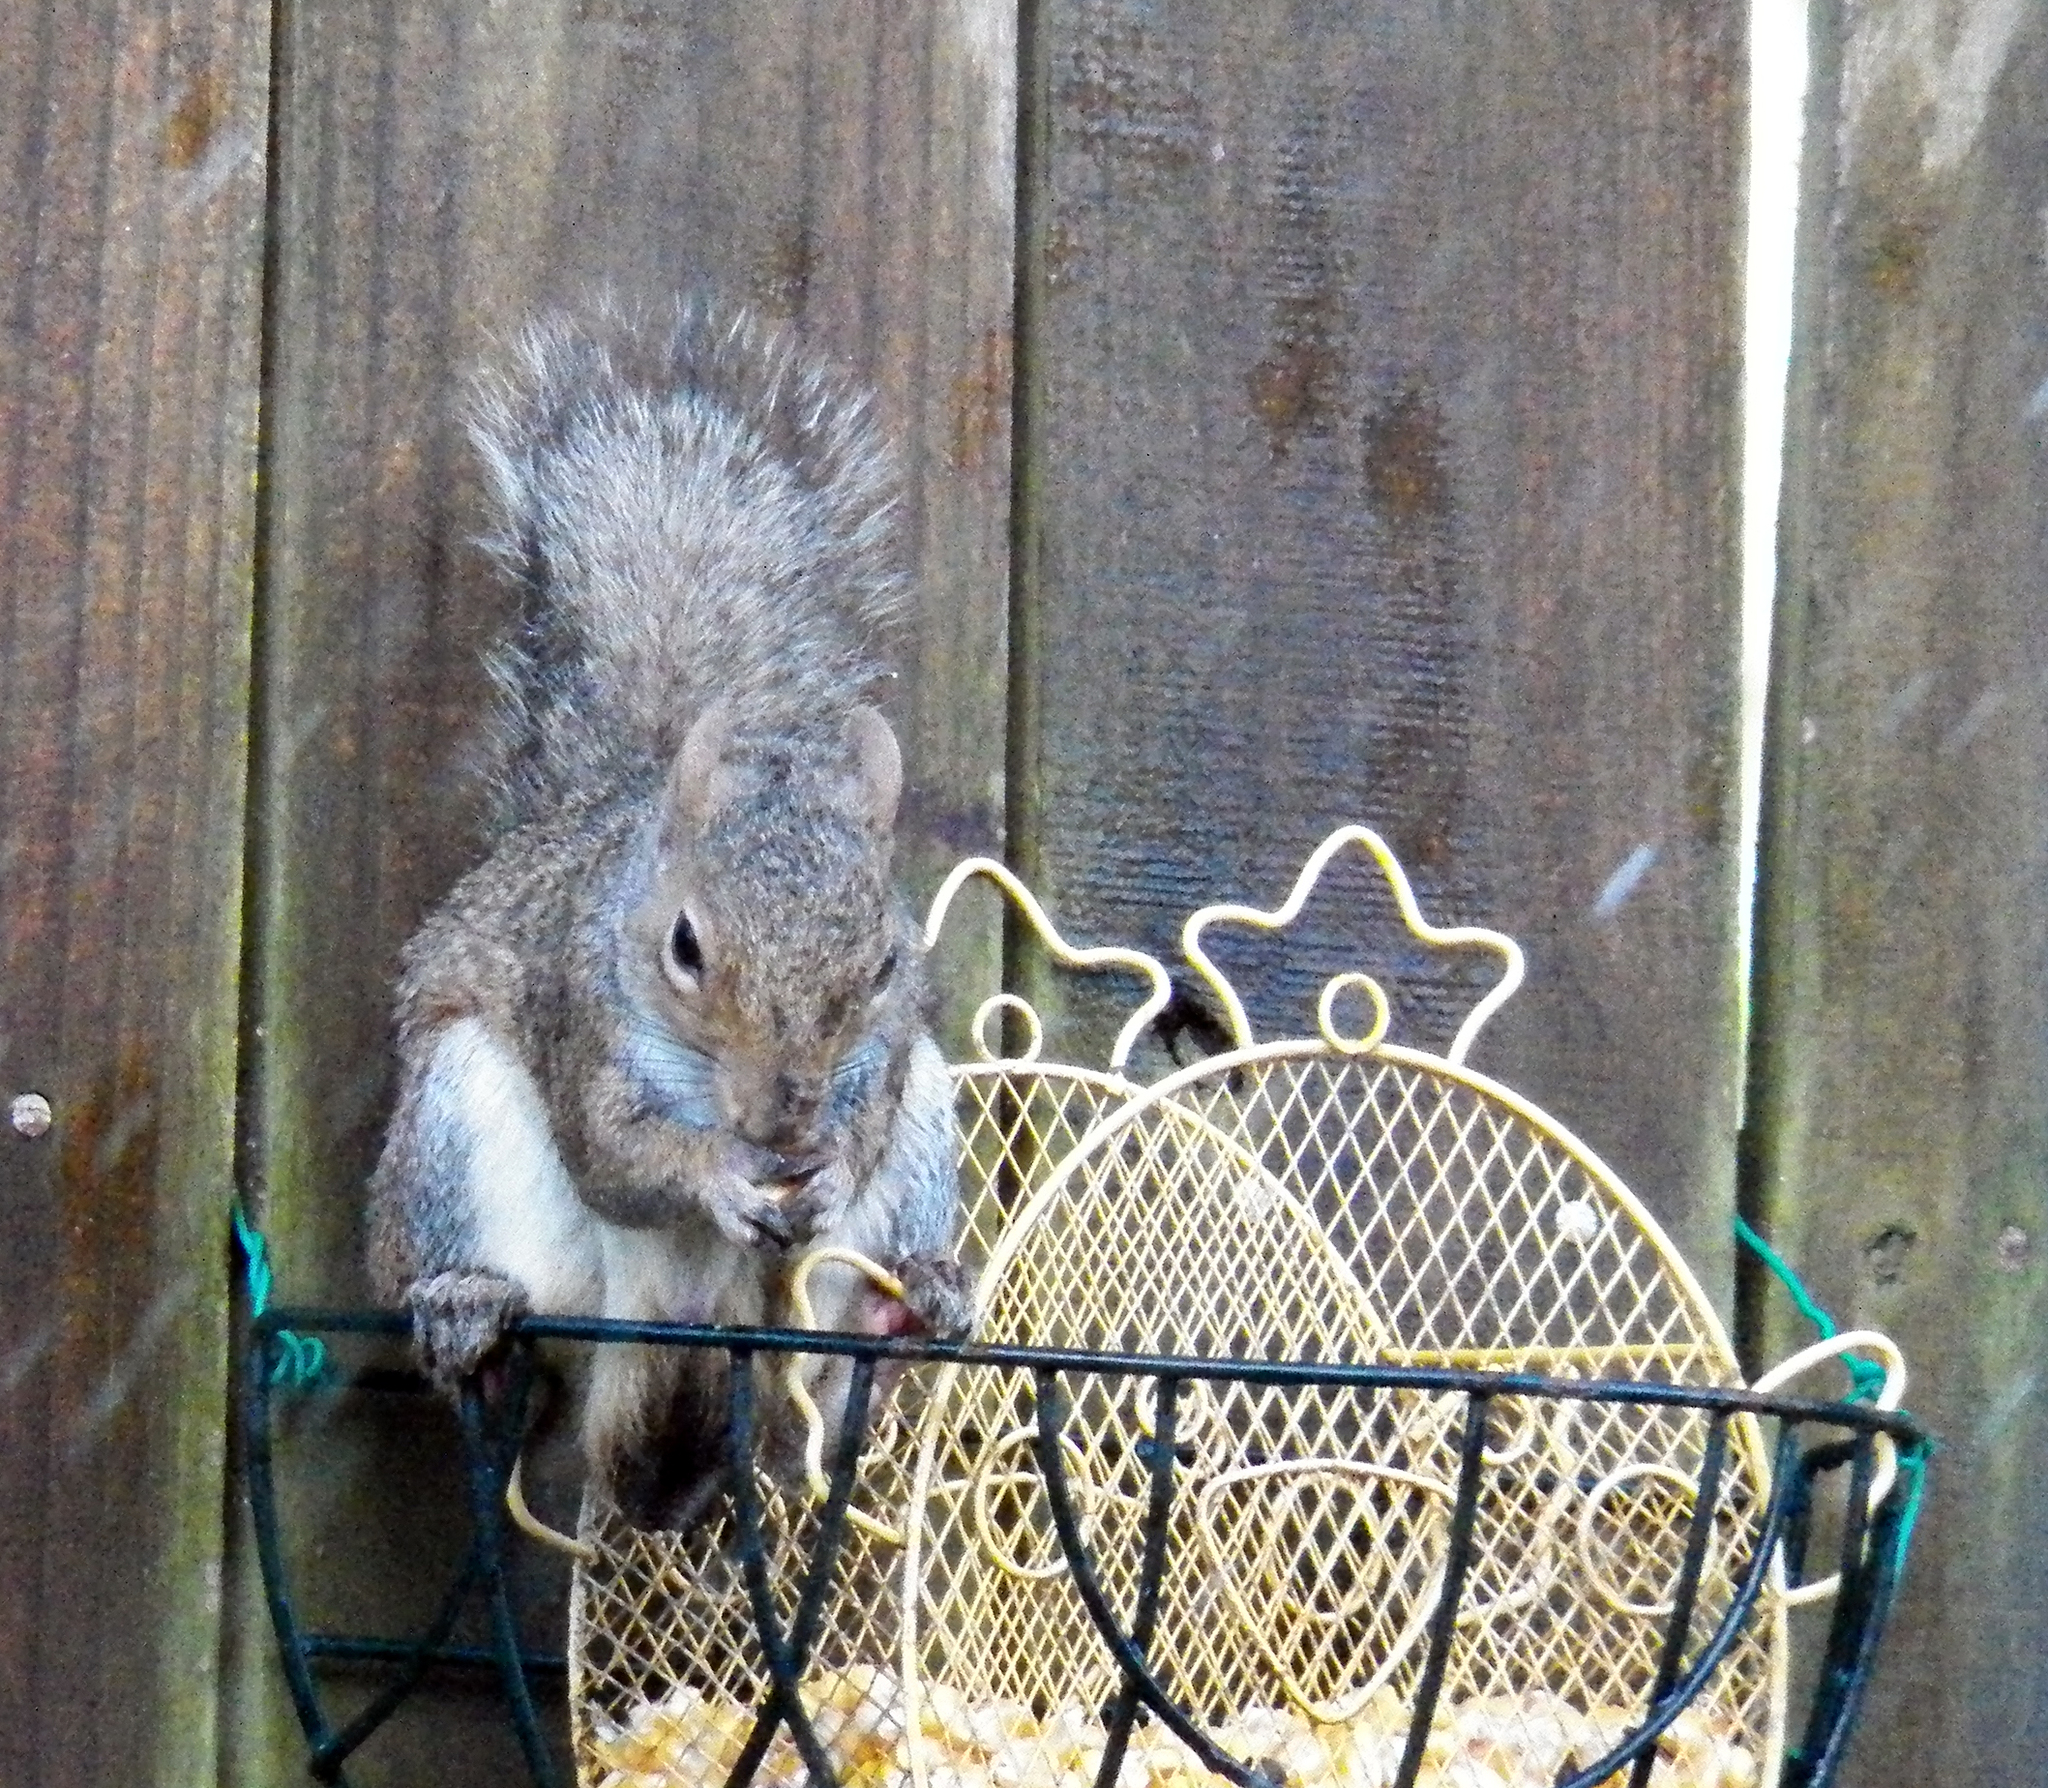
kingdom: Animalia
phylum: Chordata
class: Mammalia
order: Rodentia
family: Sciuridae
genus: Sciurus
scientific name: Sciurus carolinensis
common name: Eastern gray squirrel
